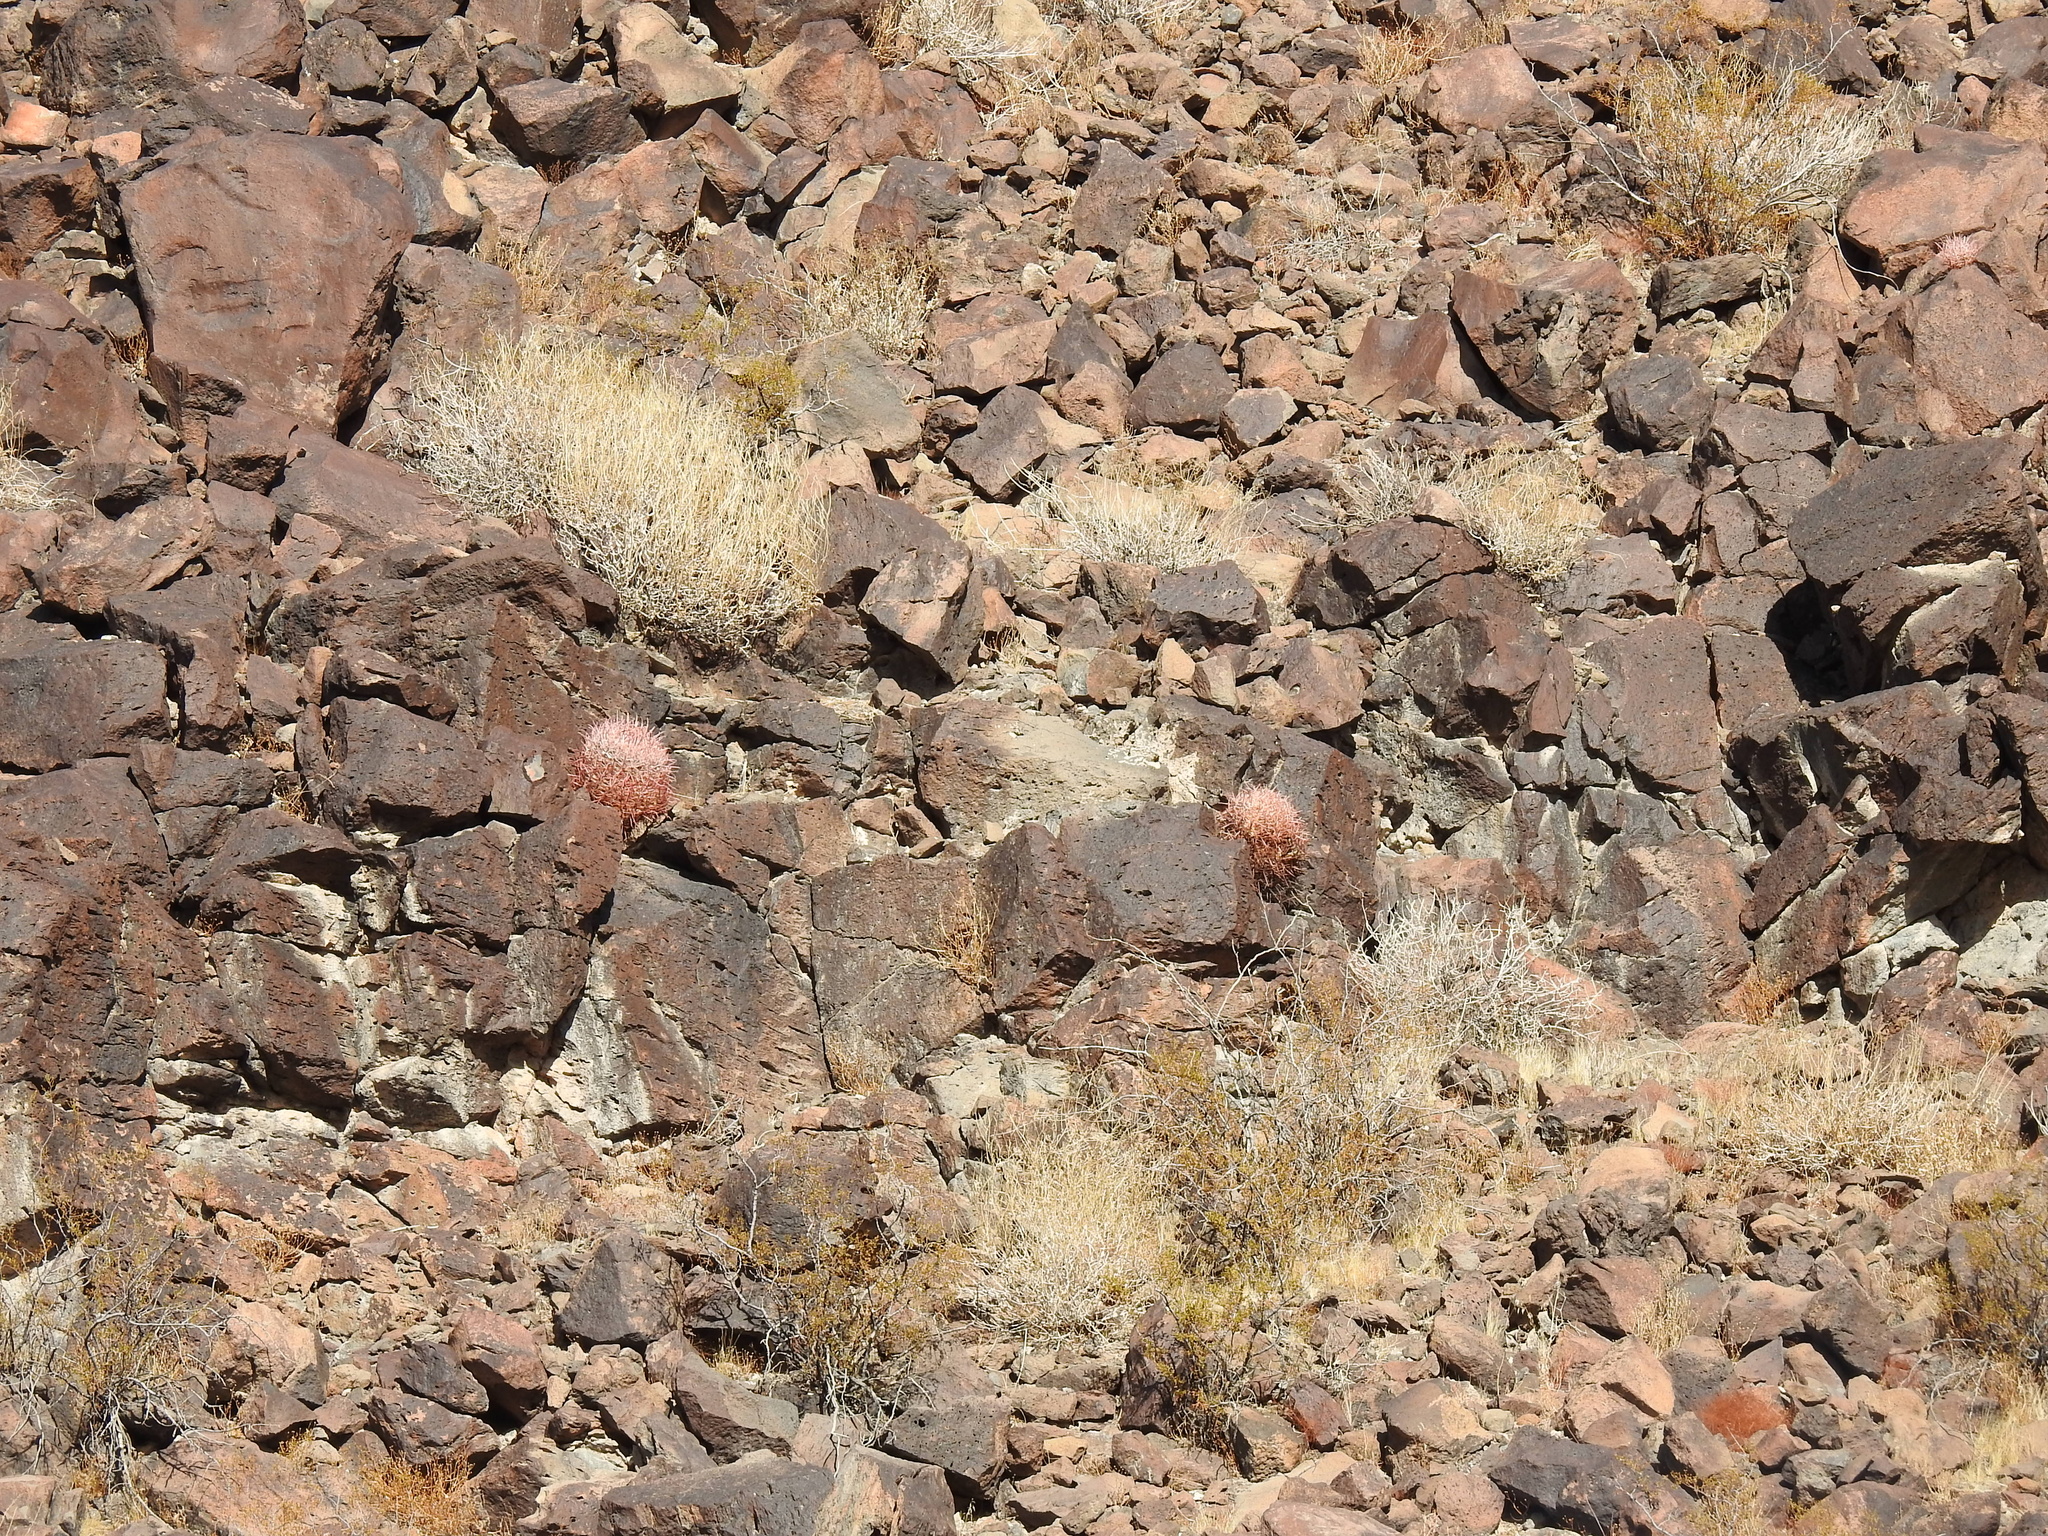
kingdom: Plantae
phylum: Tracheophyta
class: Magnoliopsida
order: Caryophyllales
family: Cactaceae
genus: Ferocactus
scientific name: Ferocactus cylindraceus
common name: California barrel cactus
